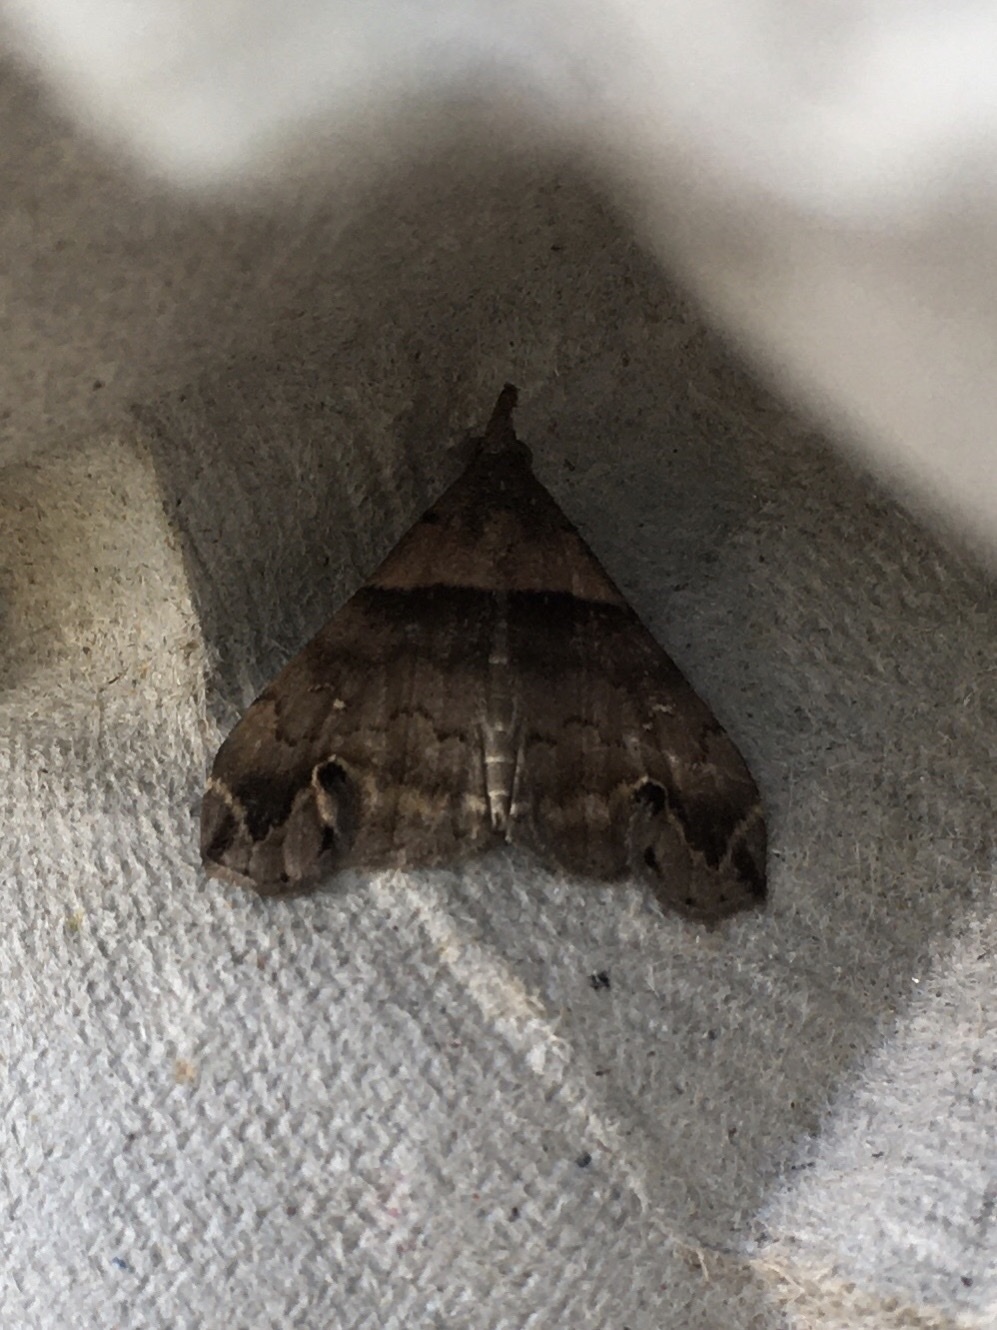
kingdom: Animalia
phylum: Arthropoda
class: Insecta
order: Lepidoptera
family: Erebidae
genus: Lascoria
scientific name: Lascoria ambigualis
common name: Ambiguous moth
